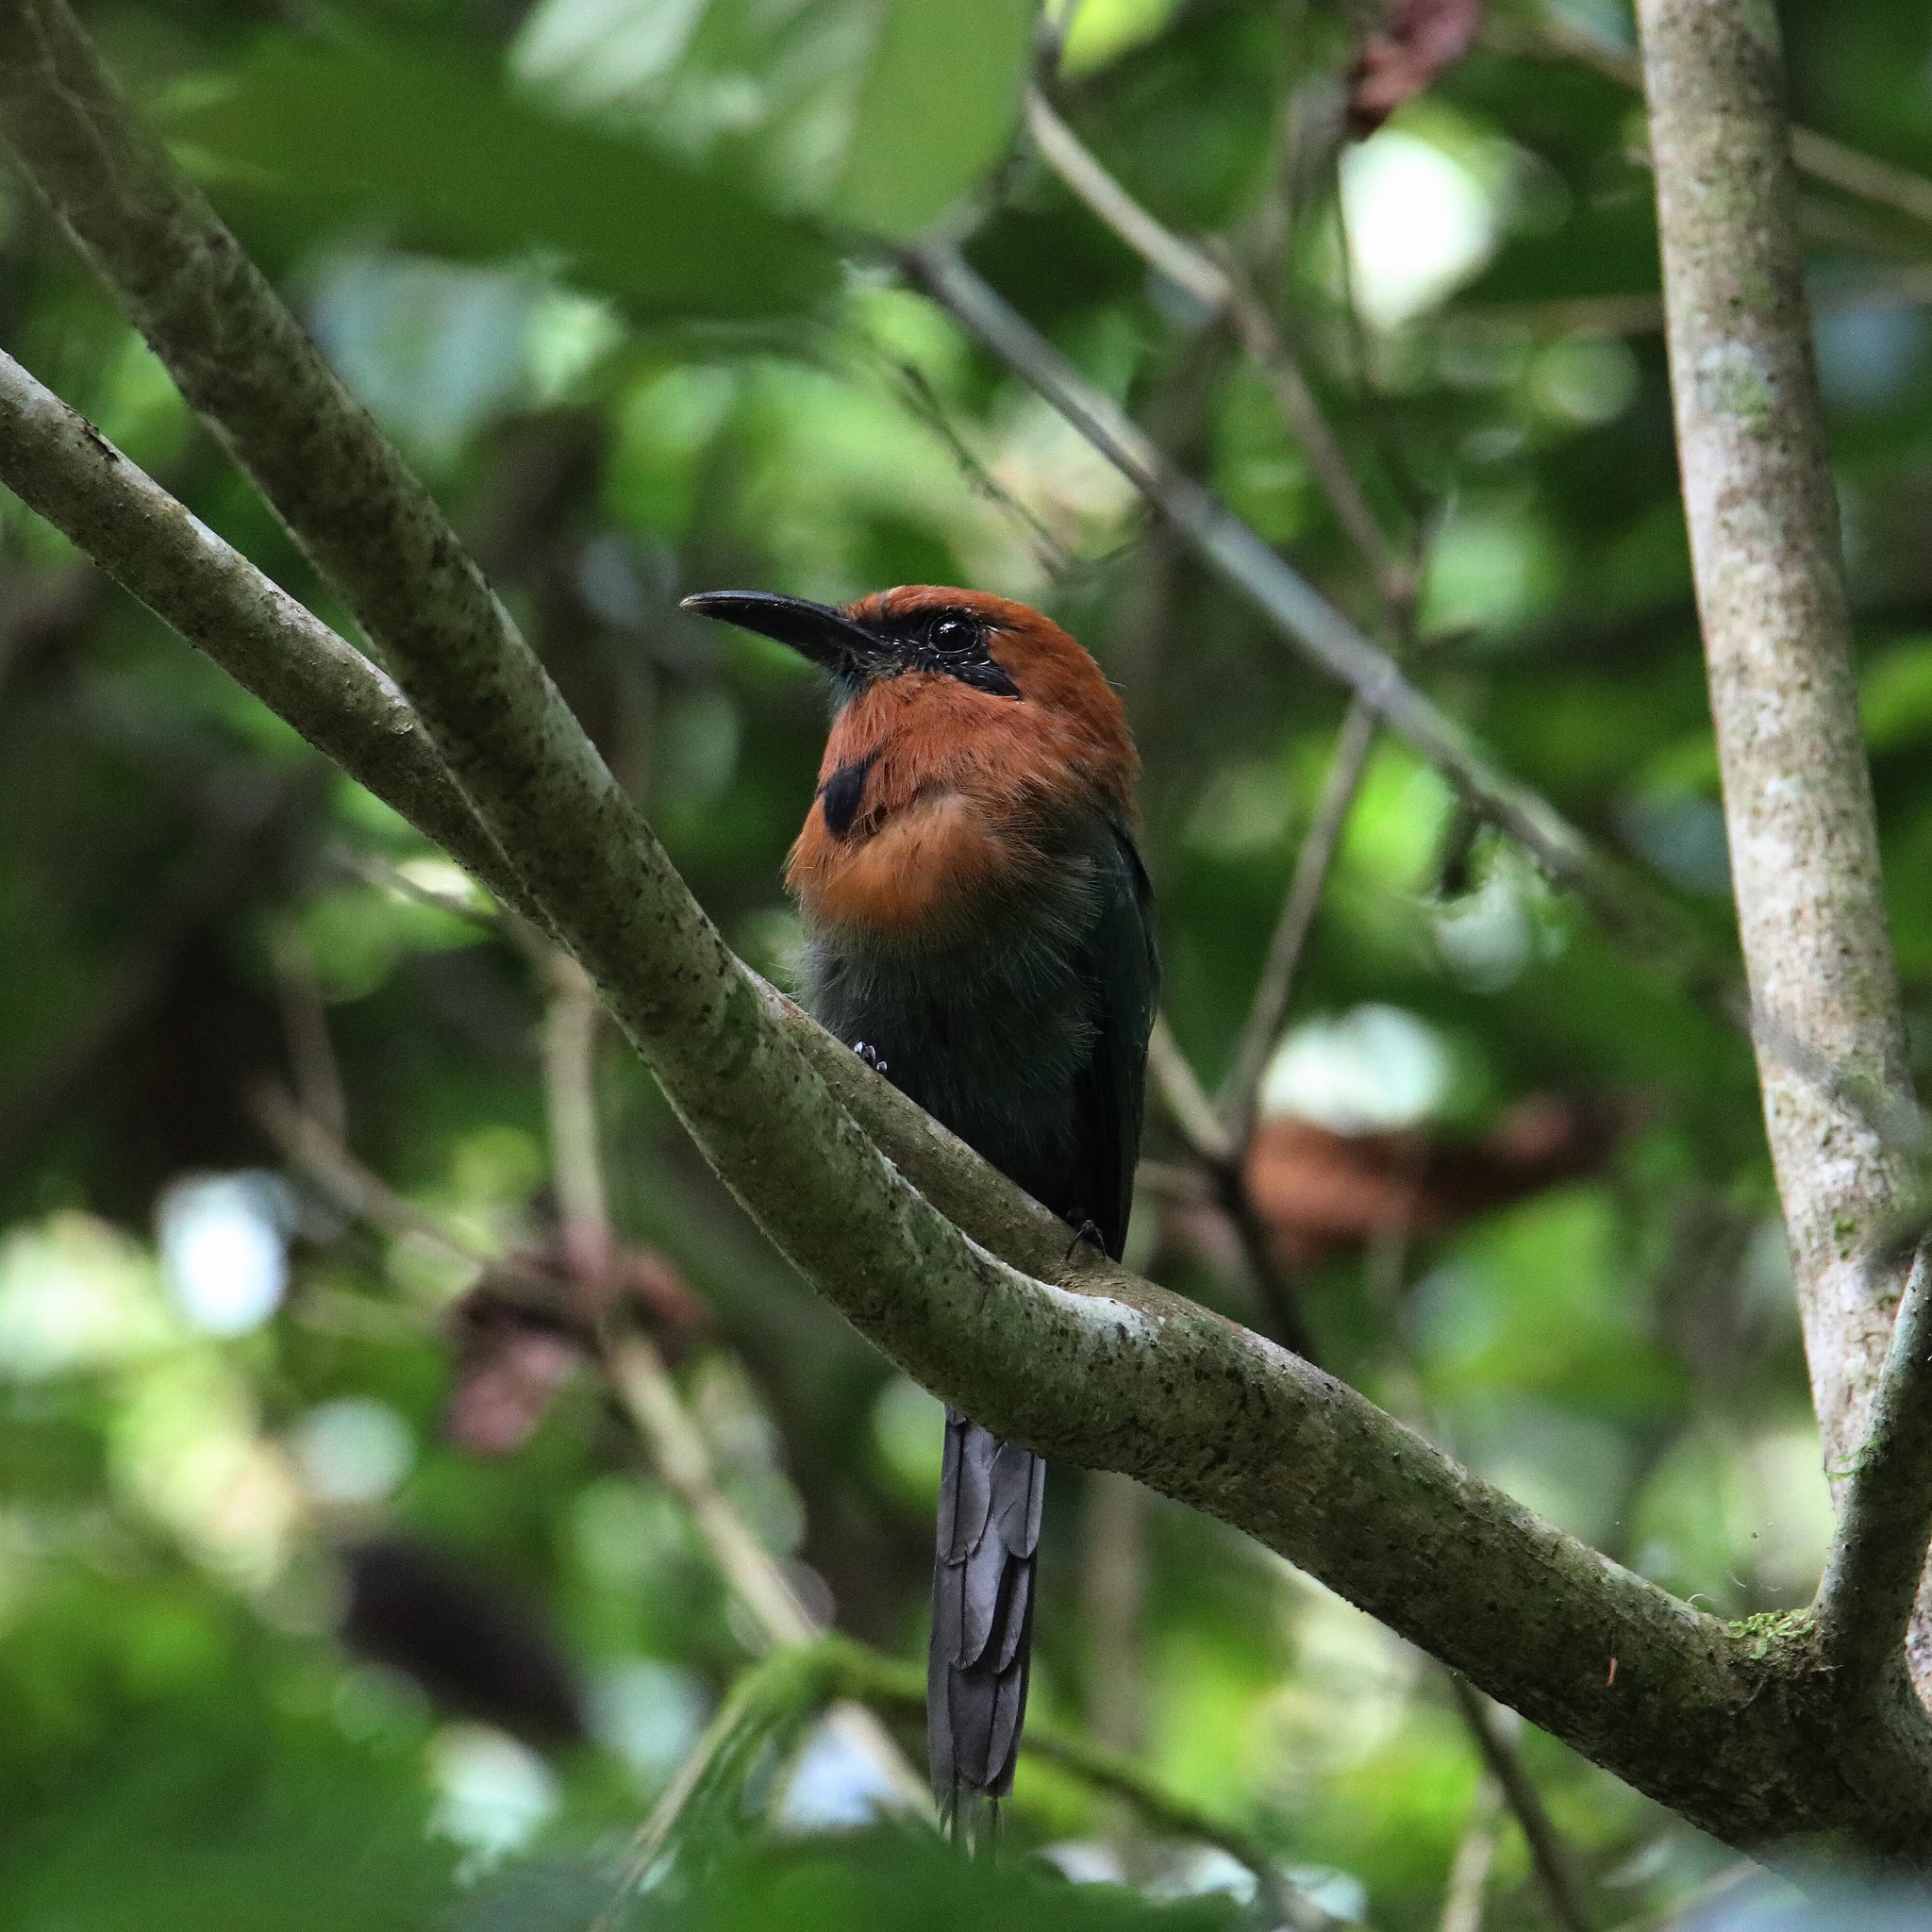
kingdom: Animalia
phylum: Chordata
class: Aves
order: Coraciiformes
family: Momotidae
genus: Electron
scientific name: Electron platyrhynchum
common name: Broad-billed motmot
